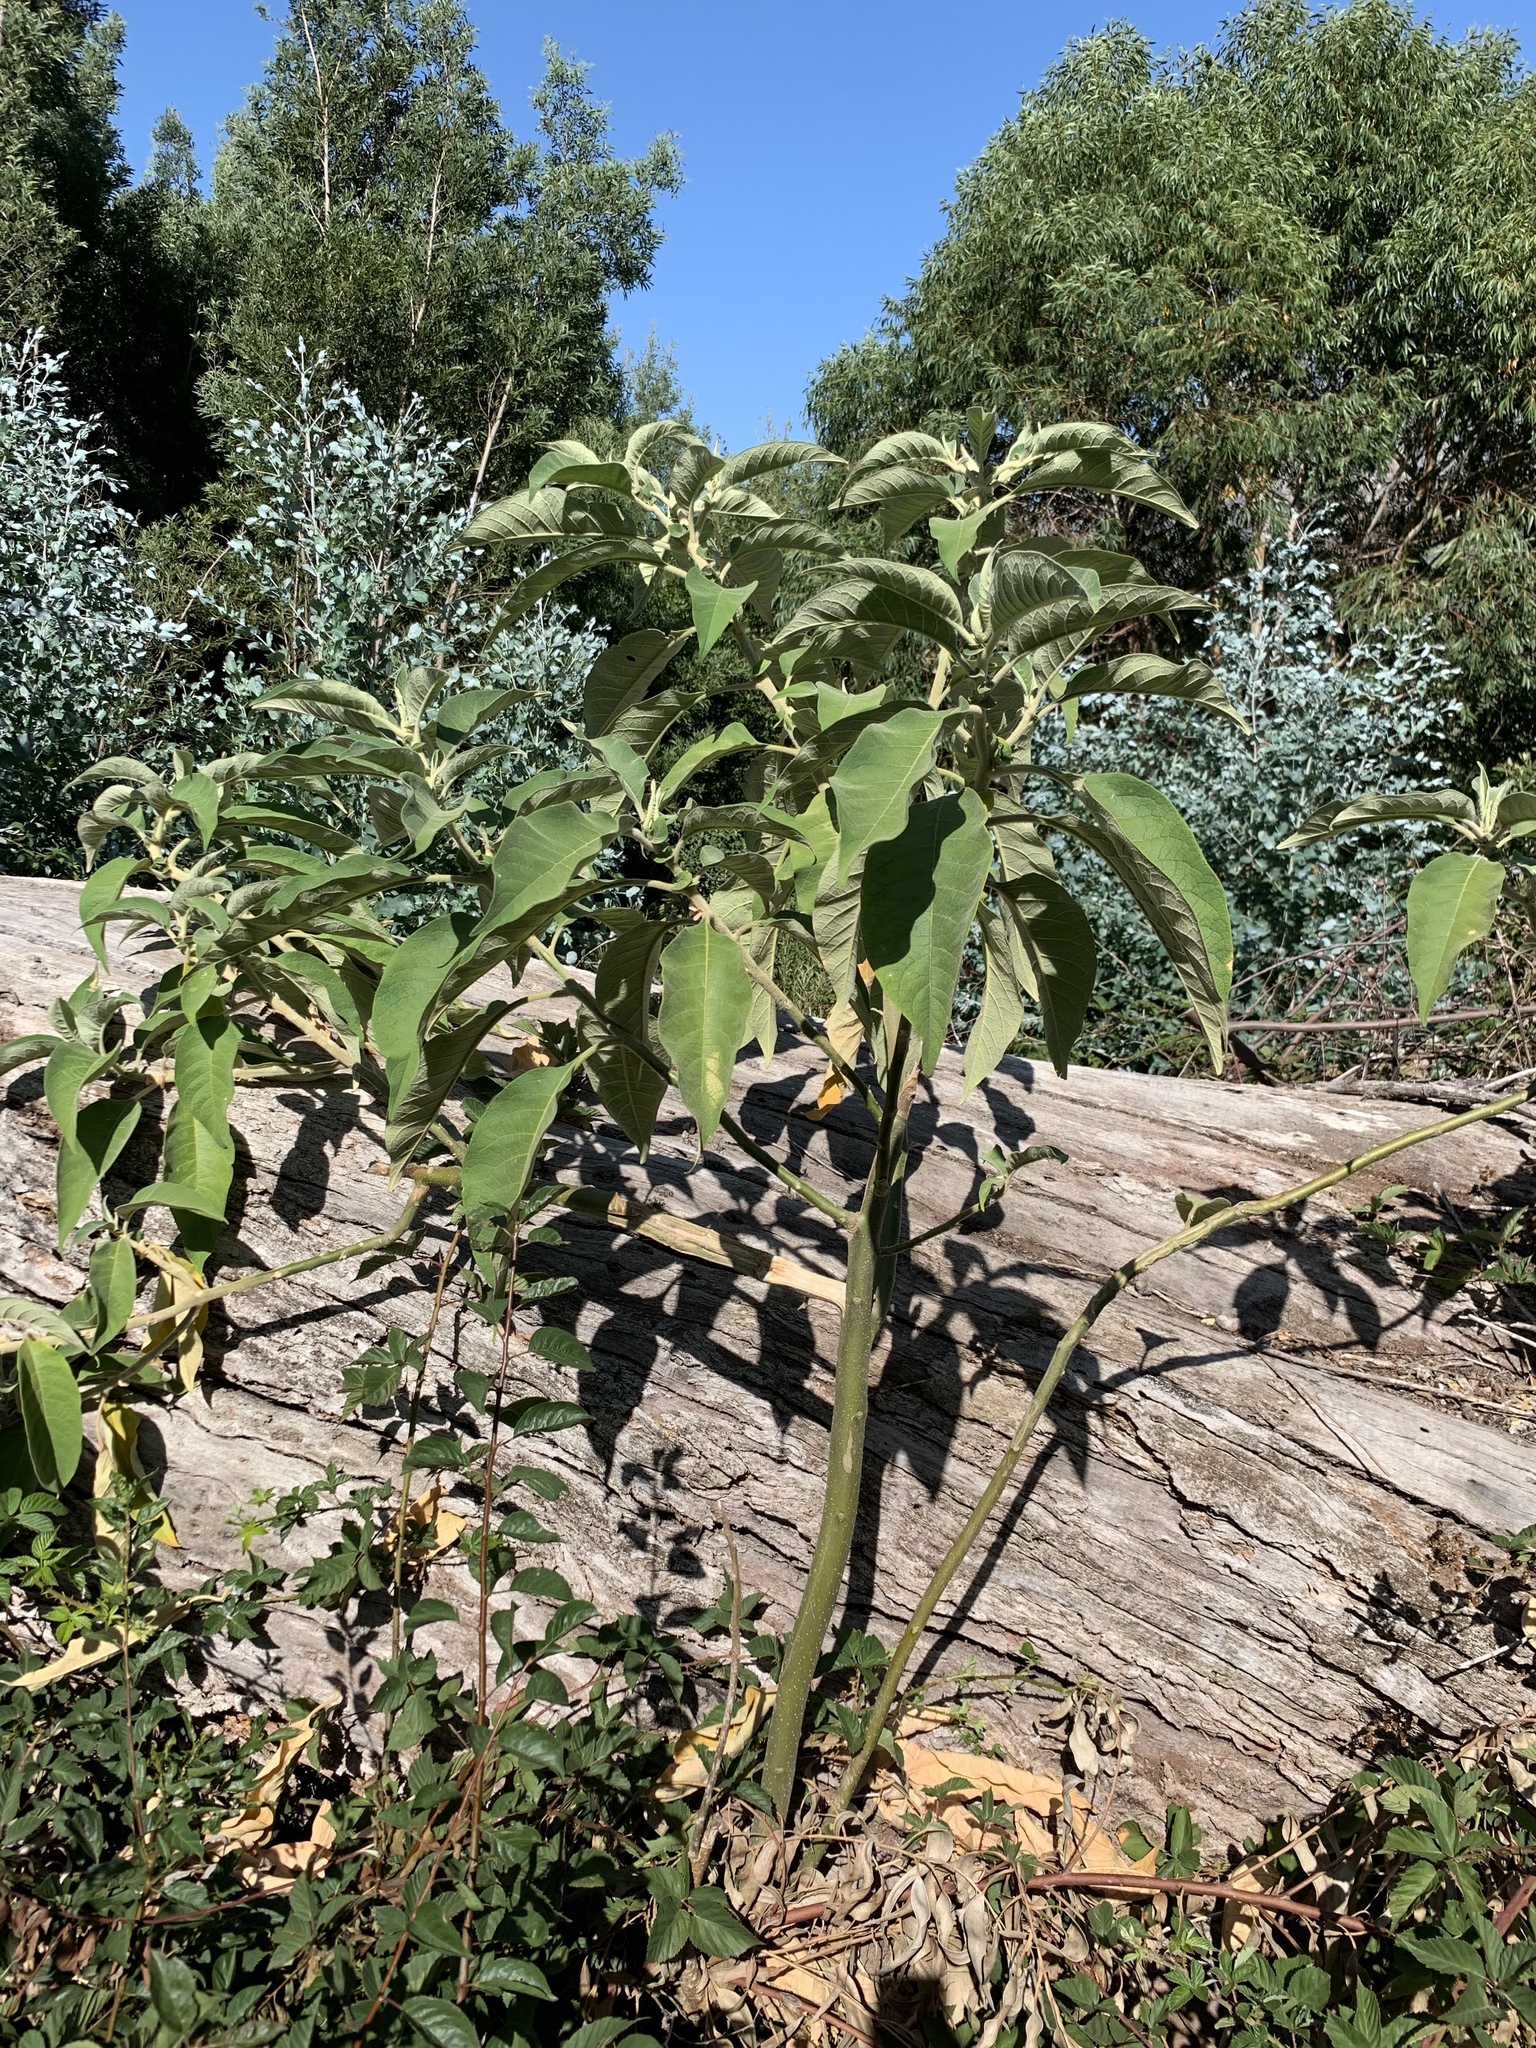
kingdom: Plantae
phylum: Tracheophyta
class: Magnoliopsida
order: Solanales
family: Solanaceae
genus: Solanum
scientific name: Solanum mauritianum
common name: Earleaf nightshade
